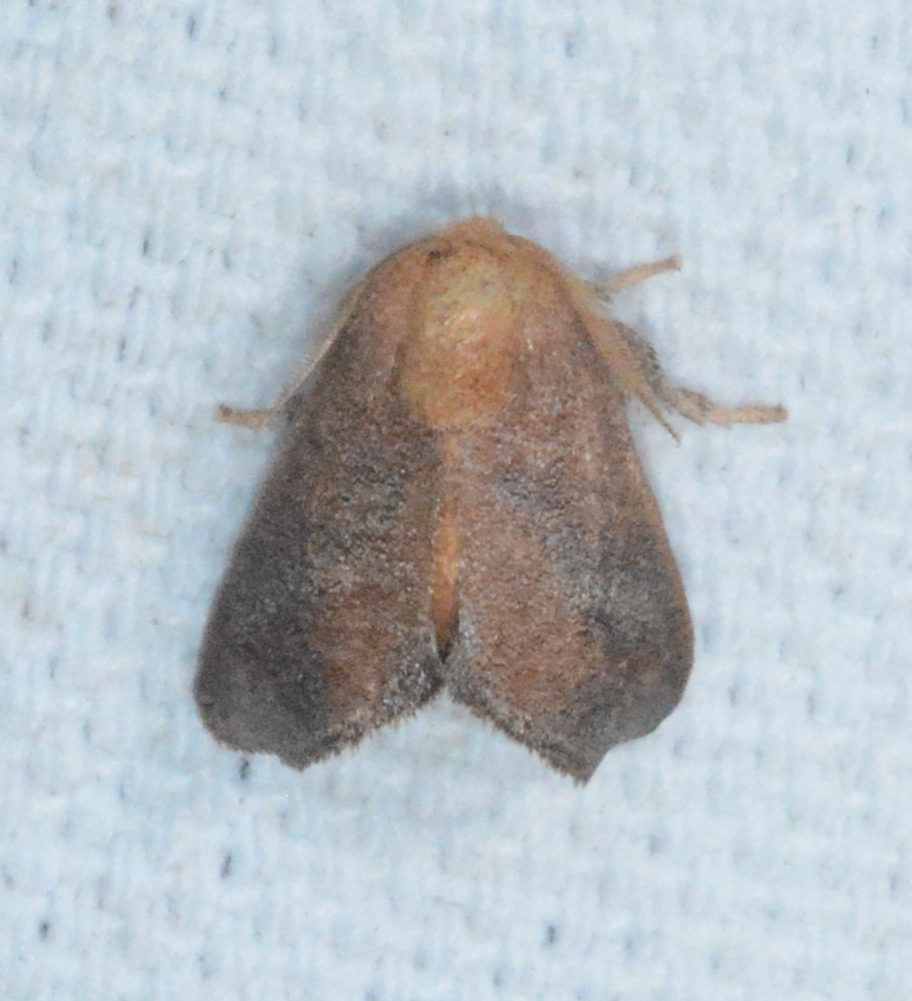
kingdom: Animalia
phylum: Arthropoda
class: Insecta
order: Lepidoptera
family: Limacodidae
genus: Isa
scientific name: Isa textula
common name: Crowned slug moth
